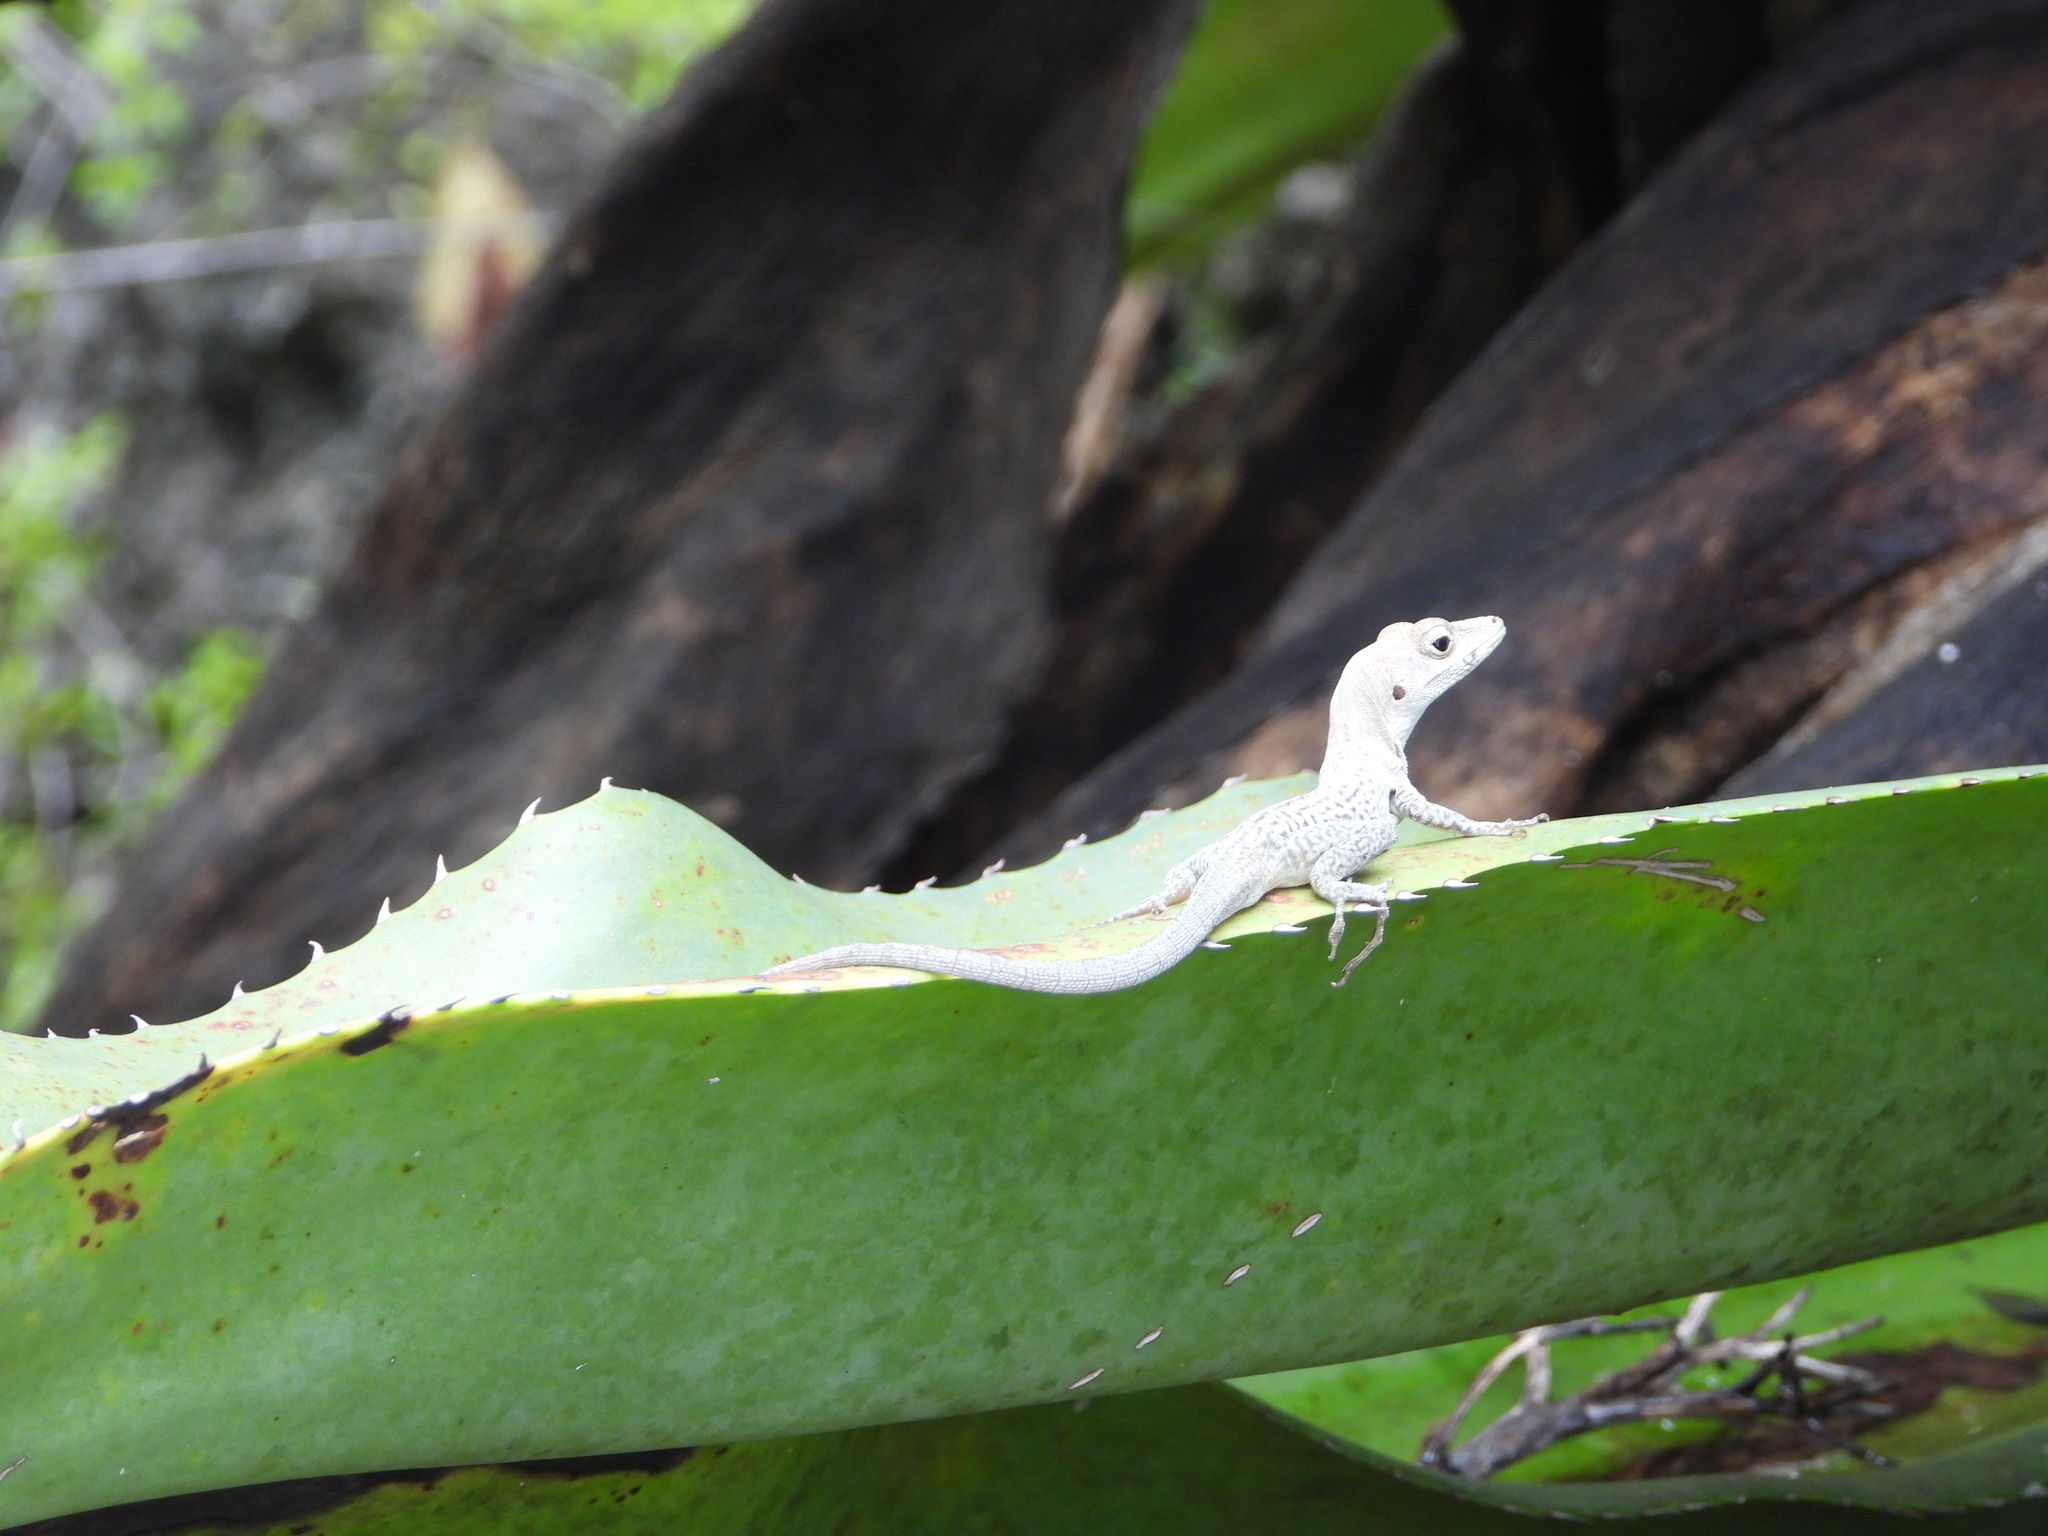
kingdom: Animalia
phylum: Chordata
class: Squamata
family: Dactyloidae
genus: Anolis
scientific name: Anolis conspersus
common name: Grand cayman anole
